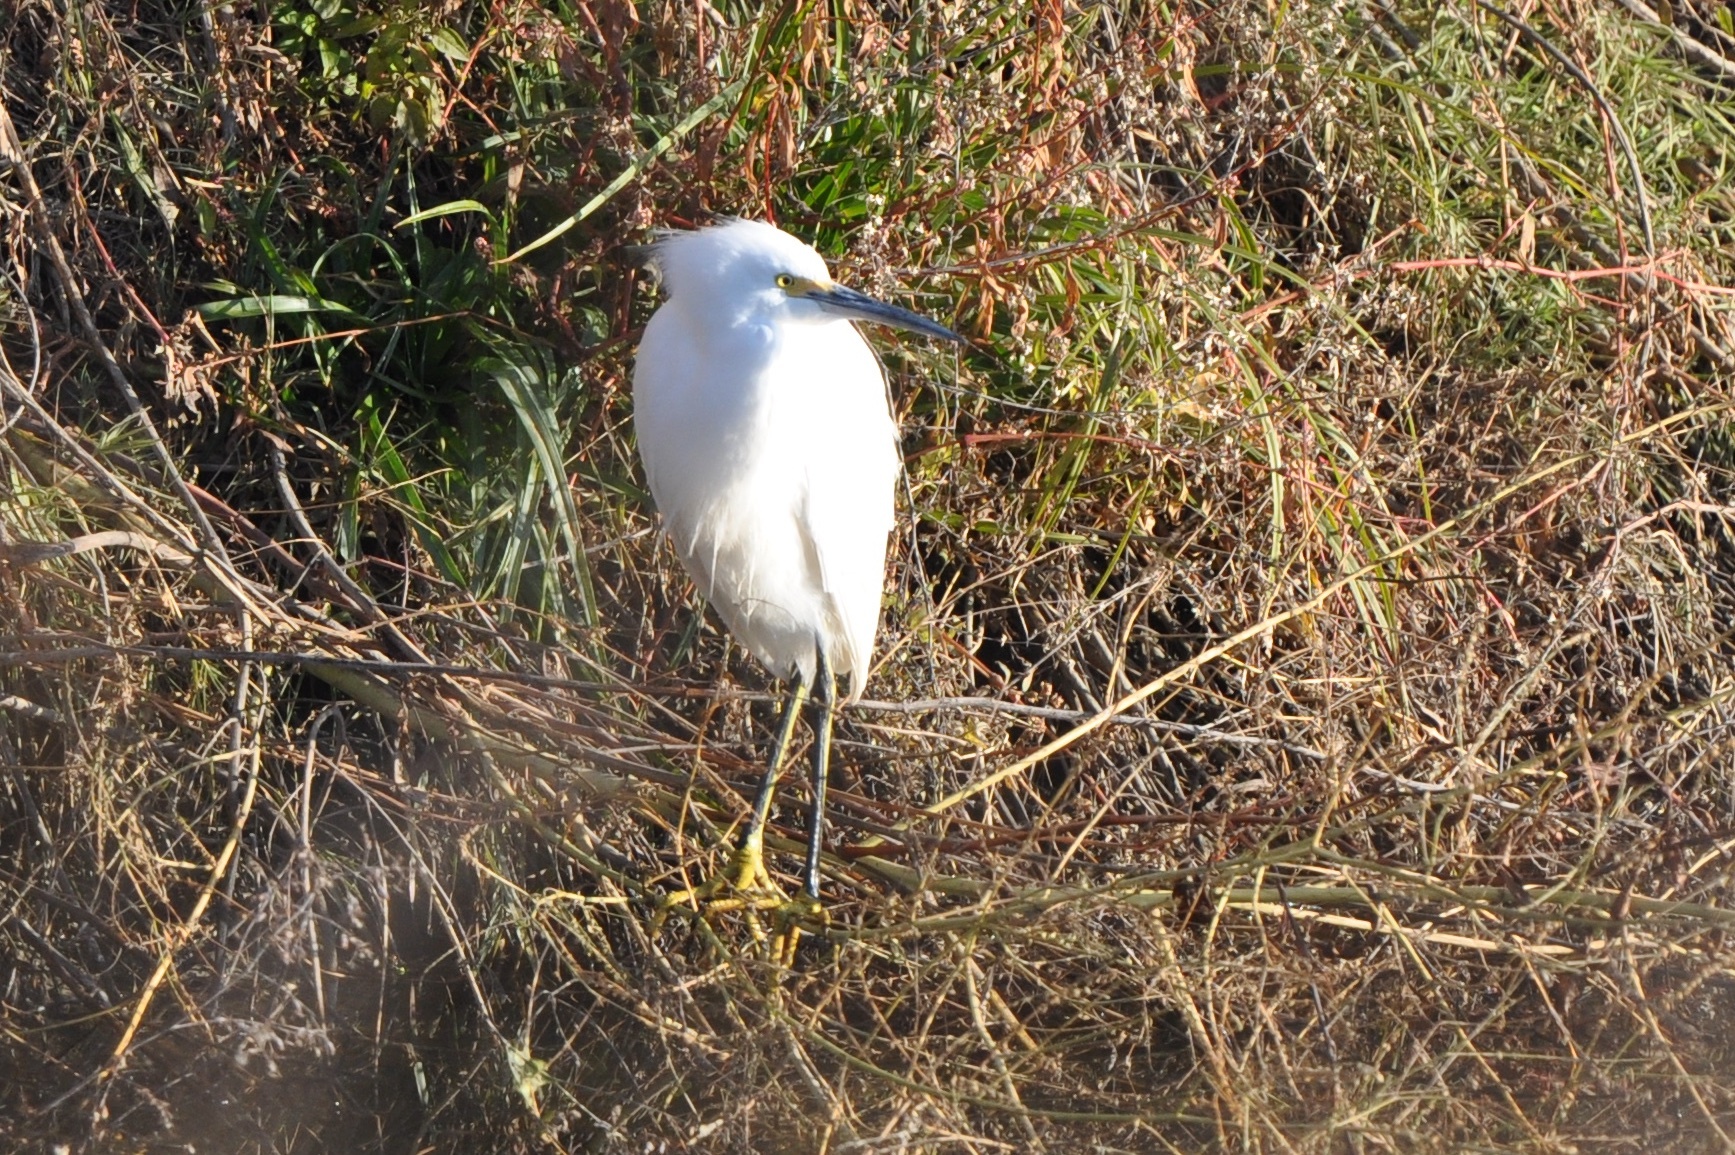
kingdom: Animalia
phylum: Chordata
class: Aves
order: Pelecaniformes
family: Ardeidae
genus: Egretta
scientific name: Egretta thula
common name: Snowy egret
